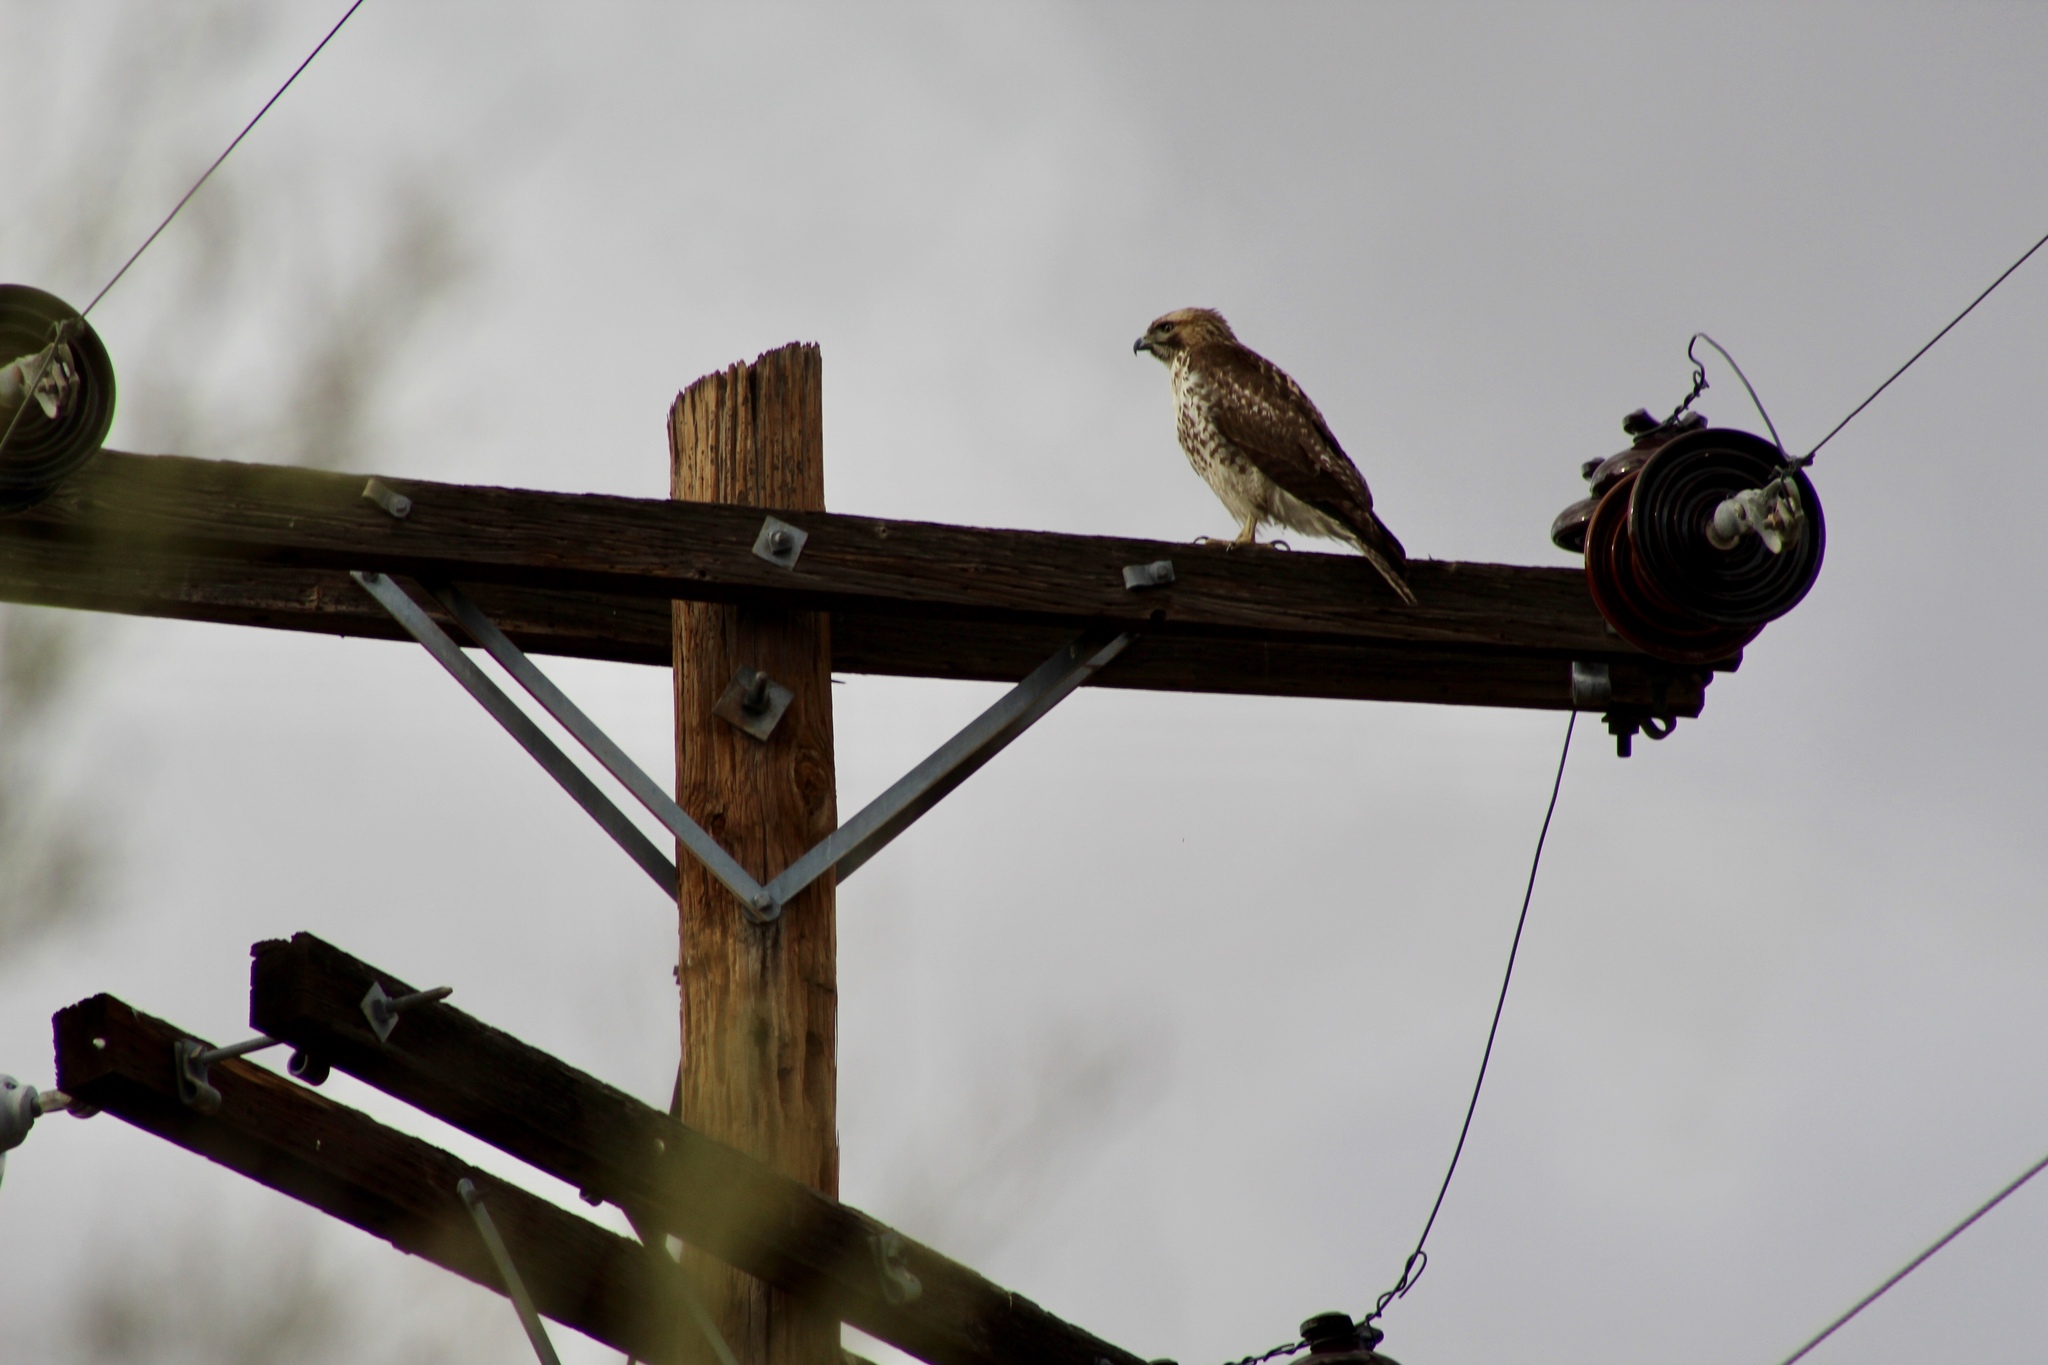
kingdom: Animalia
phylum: Chordata
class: Aves
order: Accipitriformes
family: Accipitridae
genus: Buteo
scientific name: Buteo jamaicensis
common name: Red-tailed hawk
